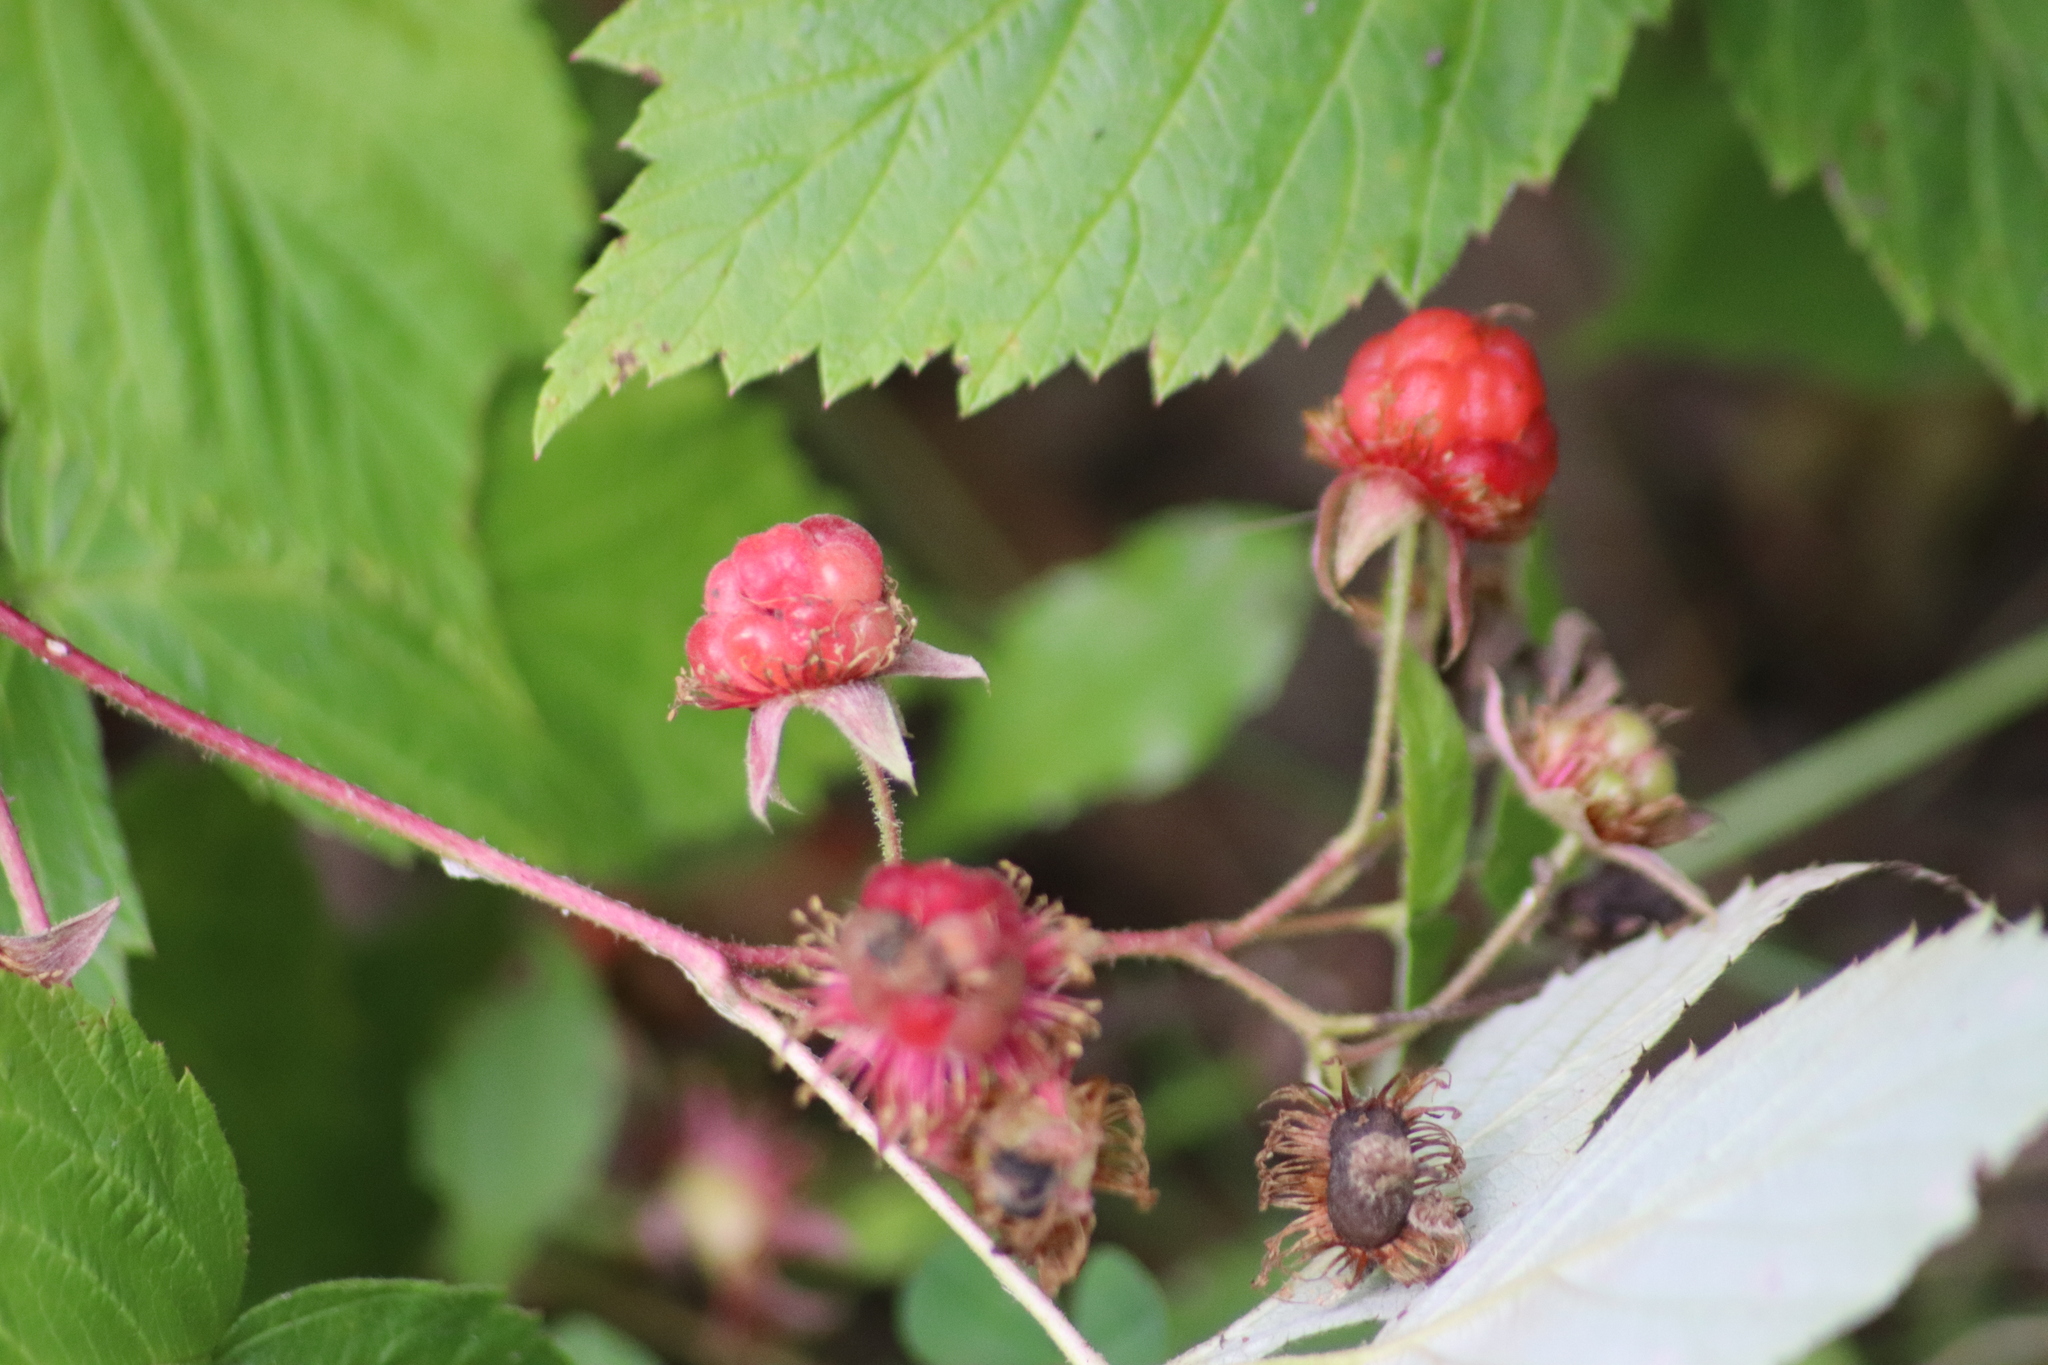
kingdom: Plantae
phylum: Tracheophyta
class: Magnoliopsida
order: Rosales
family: Rosaceae
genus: Rubus
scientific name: Rubus idaeus
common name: Raspberry
